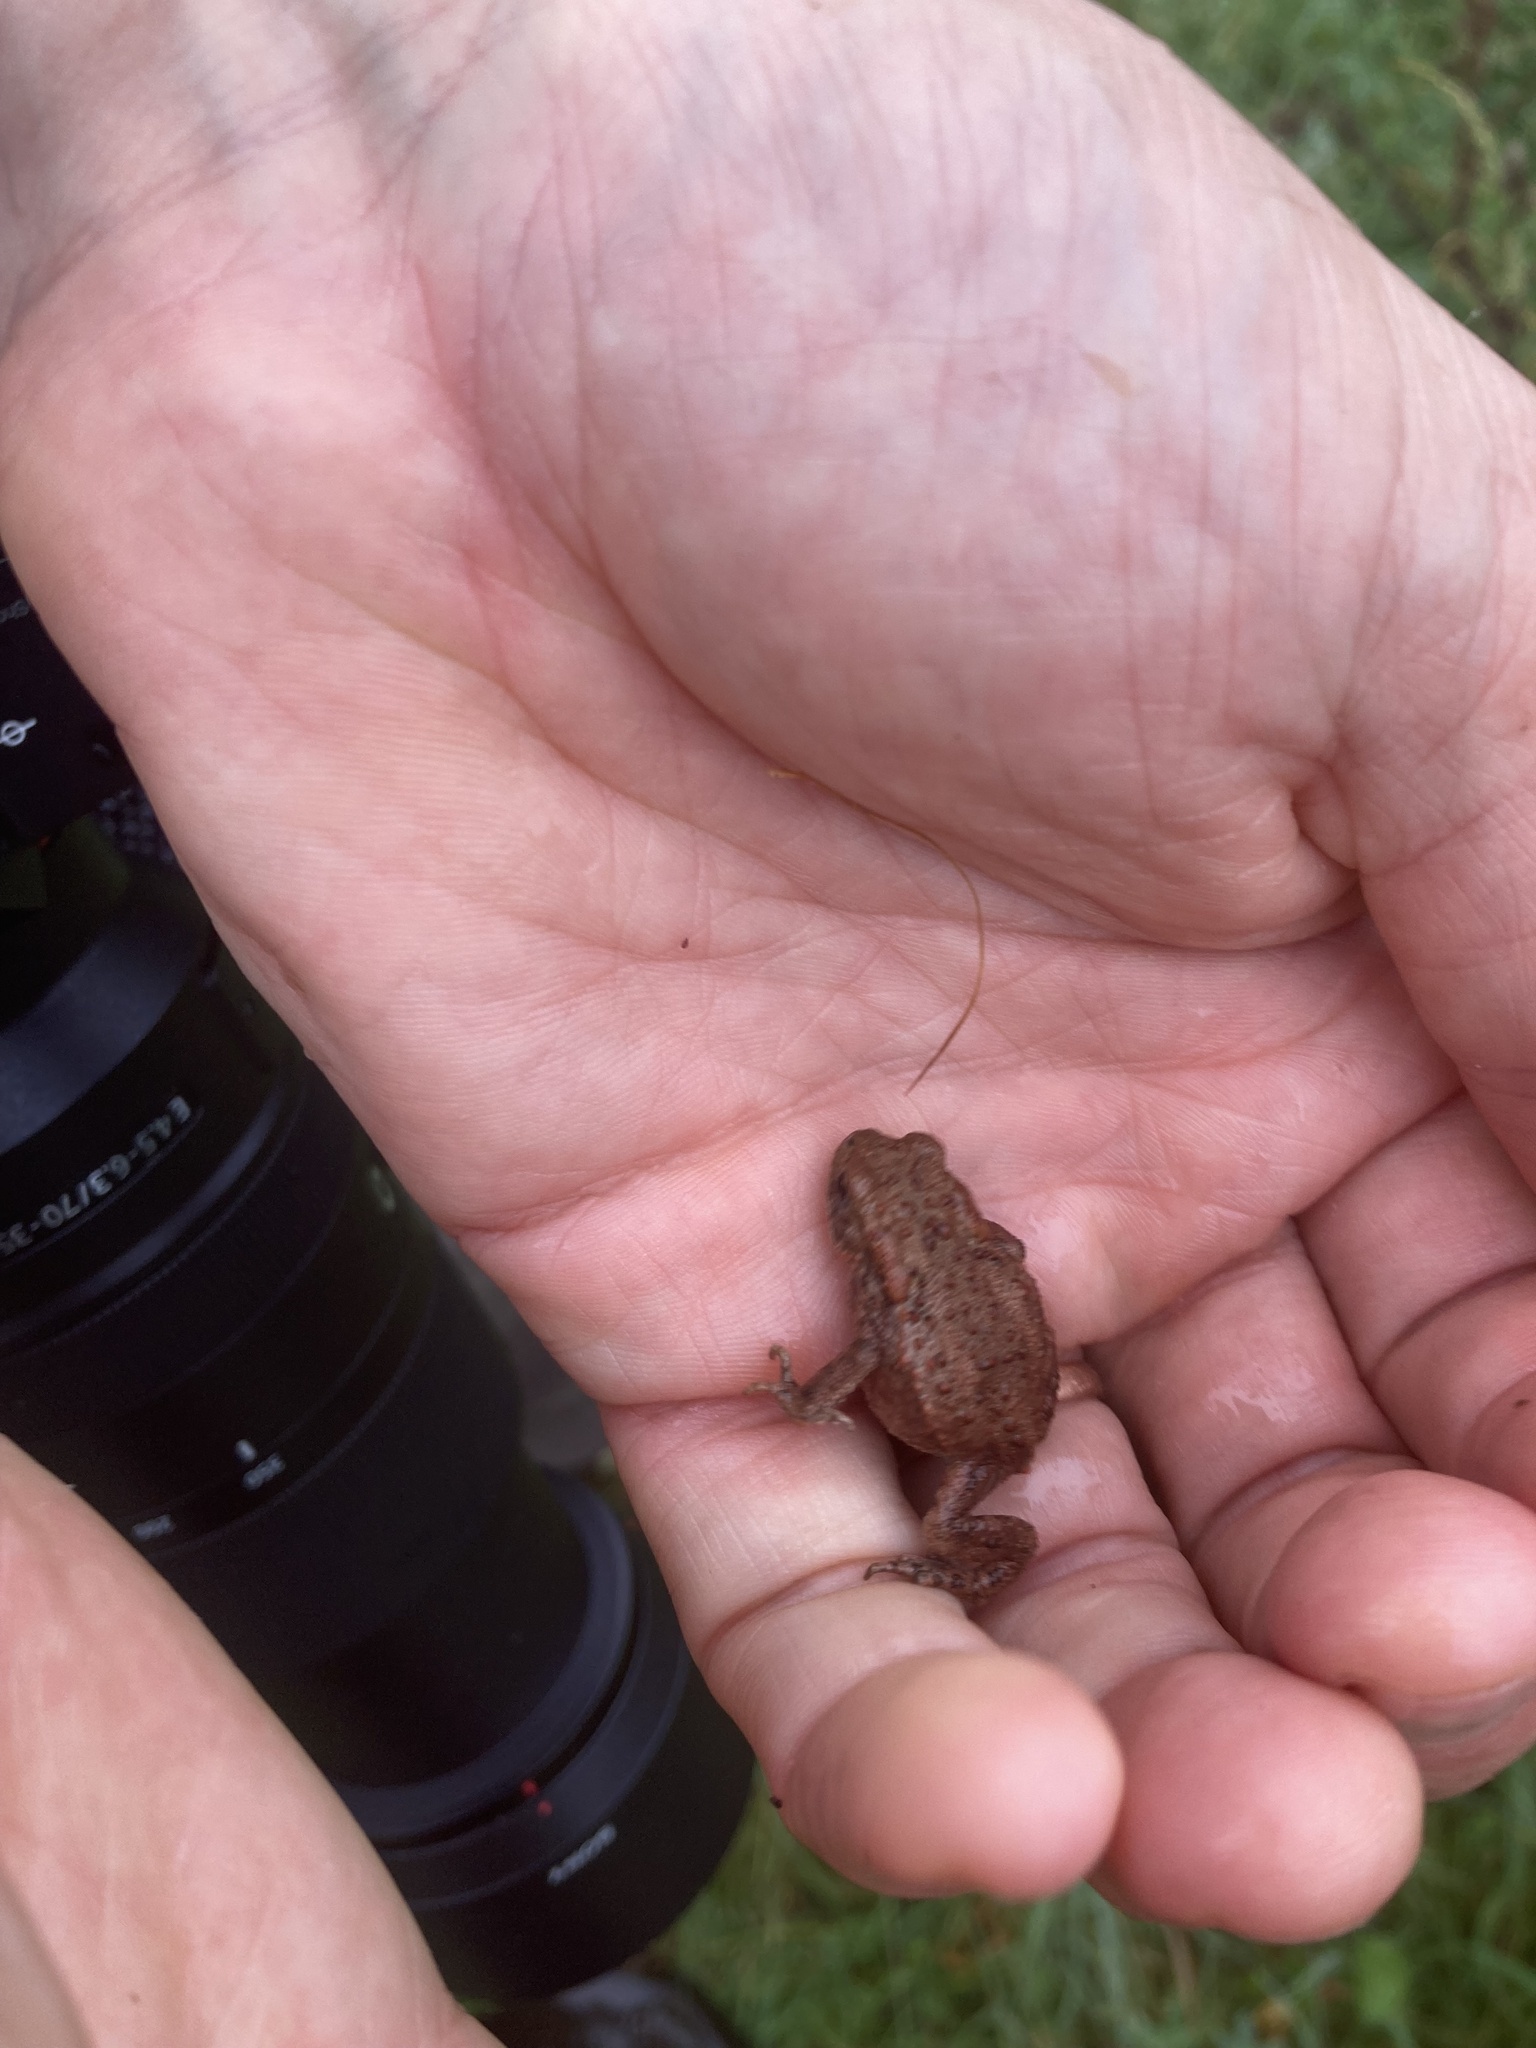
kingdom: Animalia
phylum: Chordata
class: Amphibia
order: Anura
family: Bufonidae
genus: Bufo
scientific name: Bufo bufo
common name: Common toad
